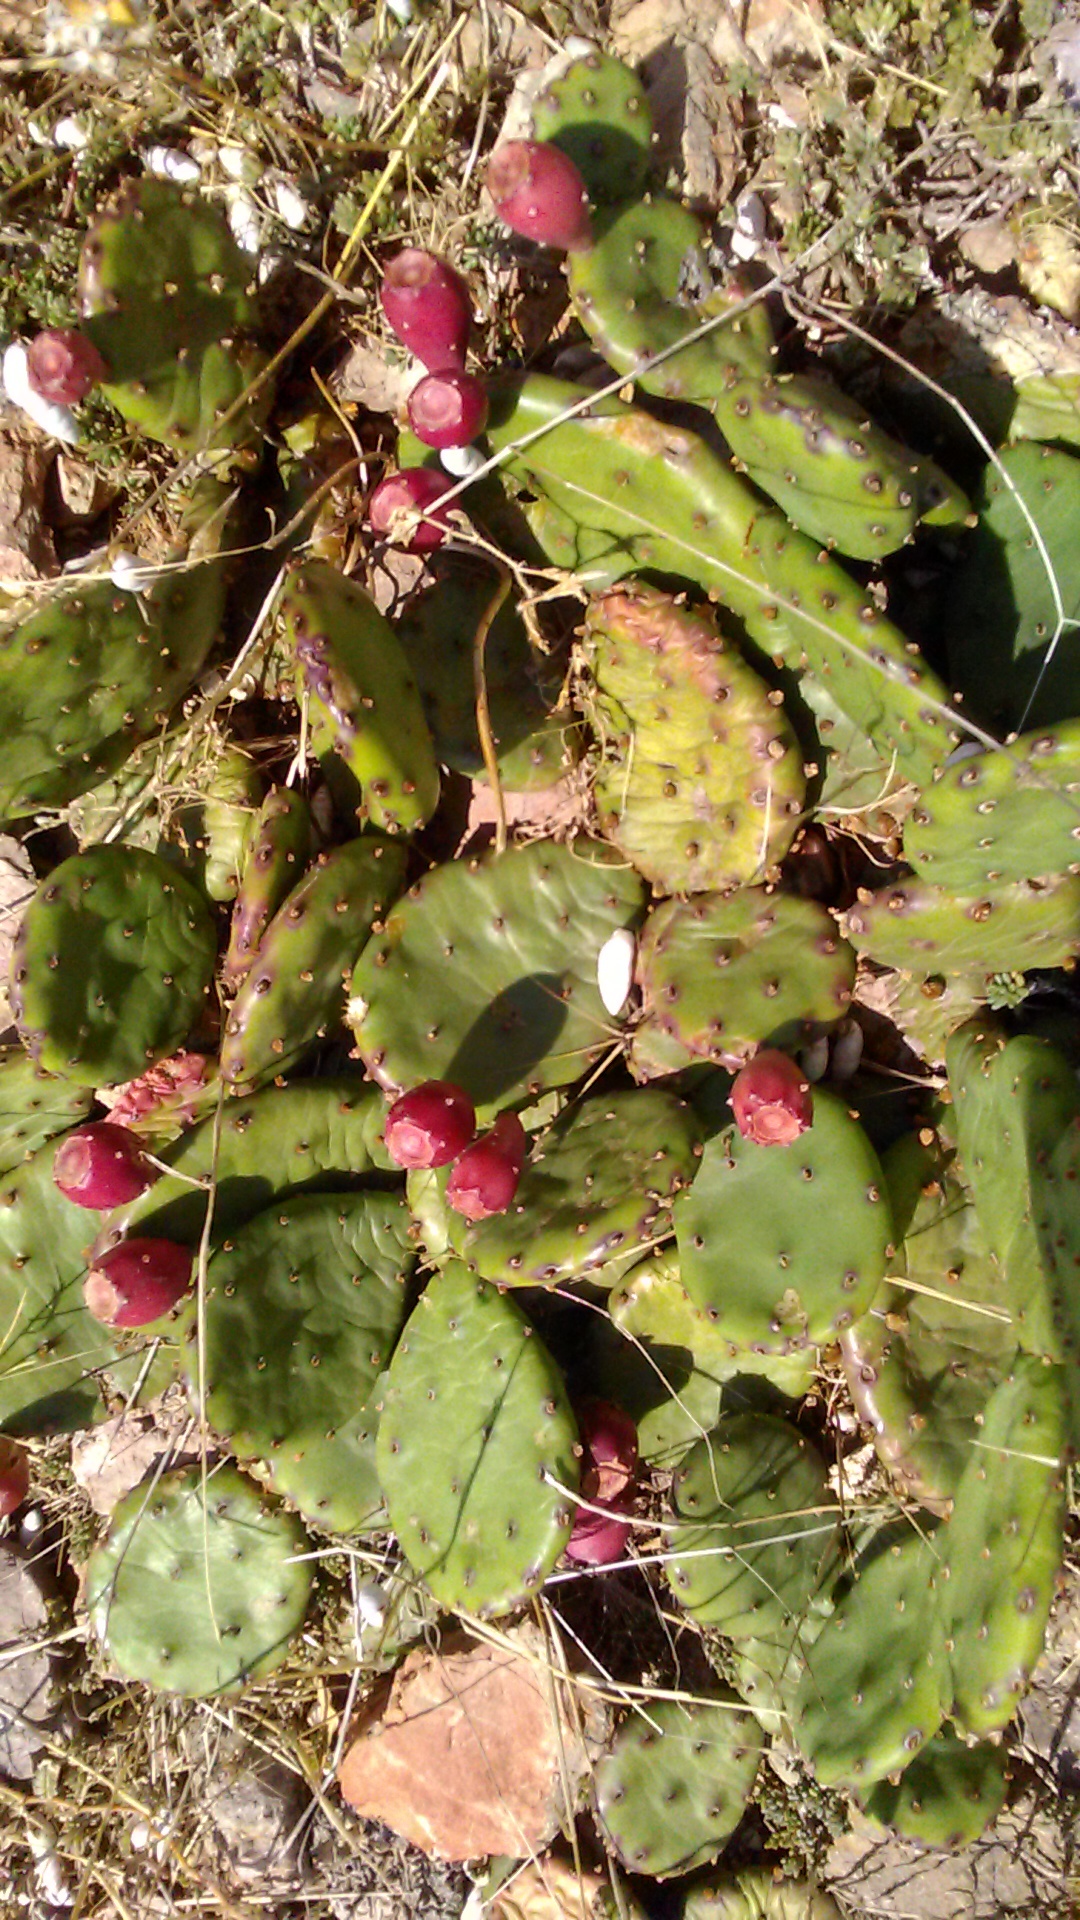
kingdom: Plantae
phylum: Tracheophyta
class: Magnoliopsida
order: Caryophyllales
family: Cactaceae
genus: Opuntia
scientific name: Opuntia humifusa
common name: Eastern prickly-pear
